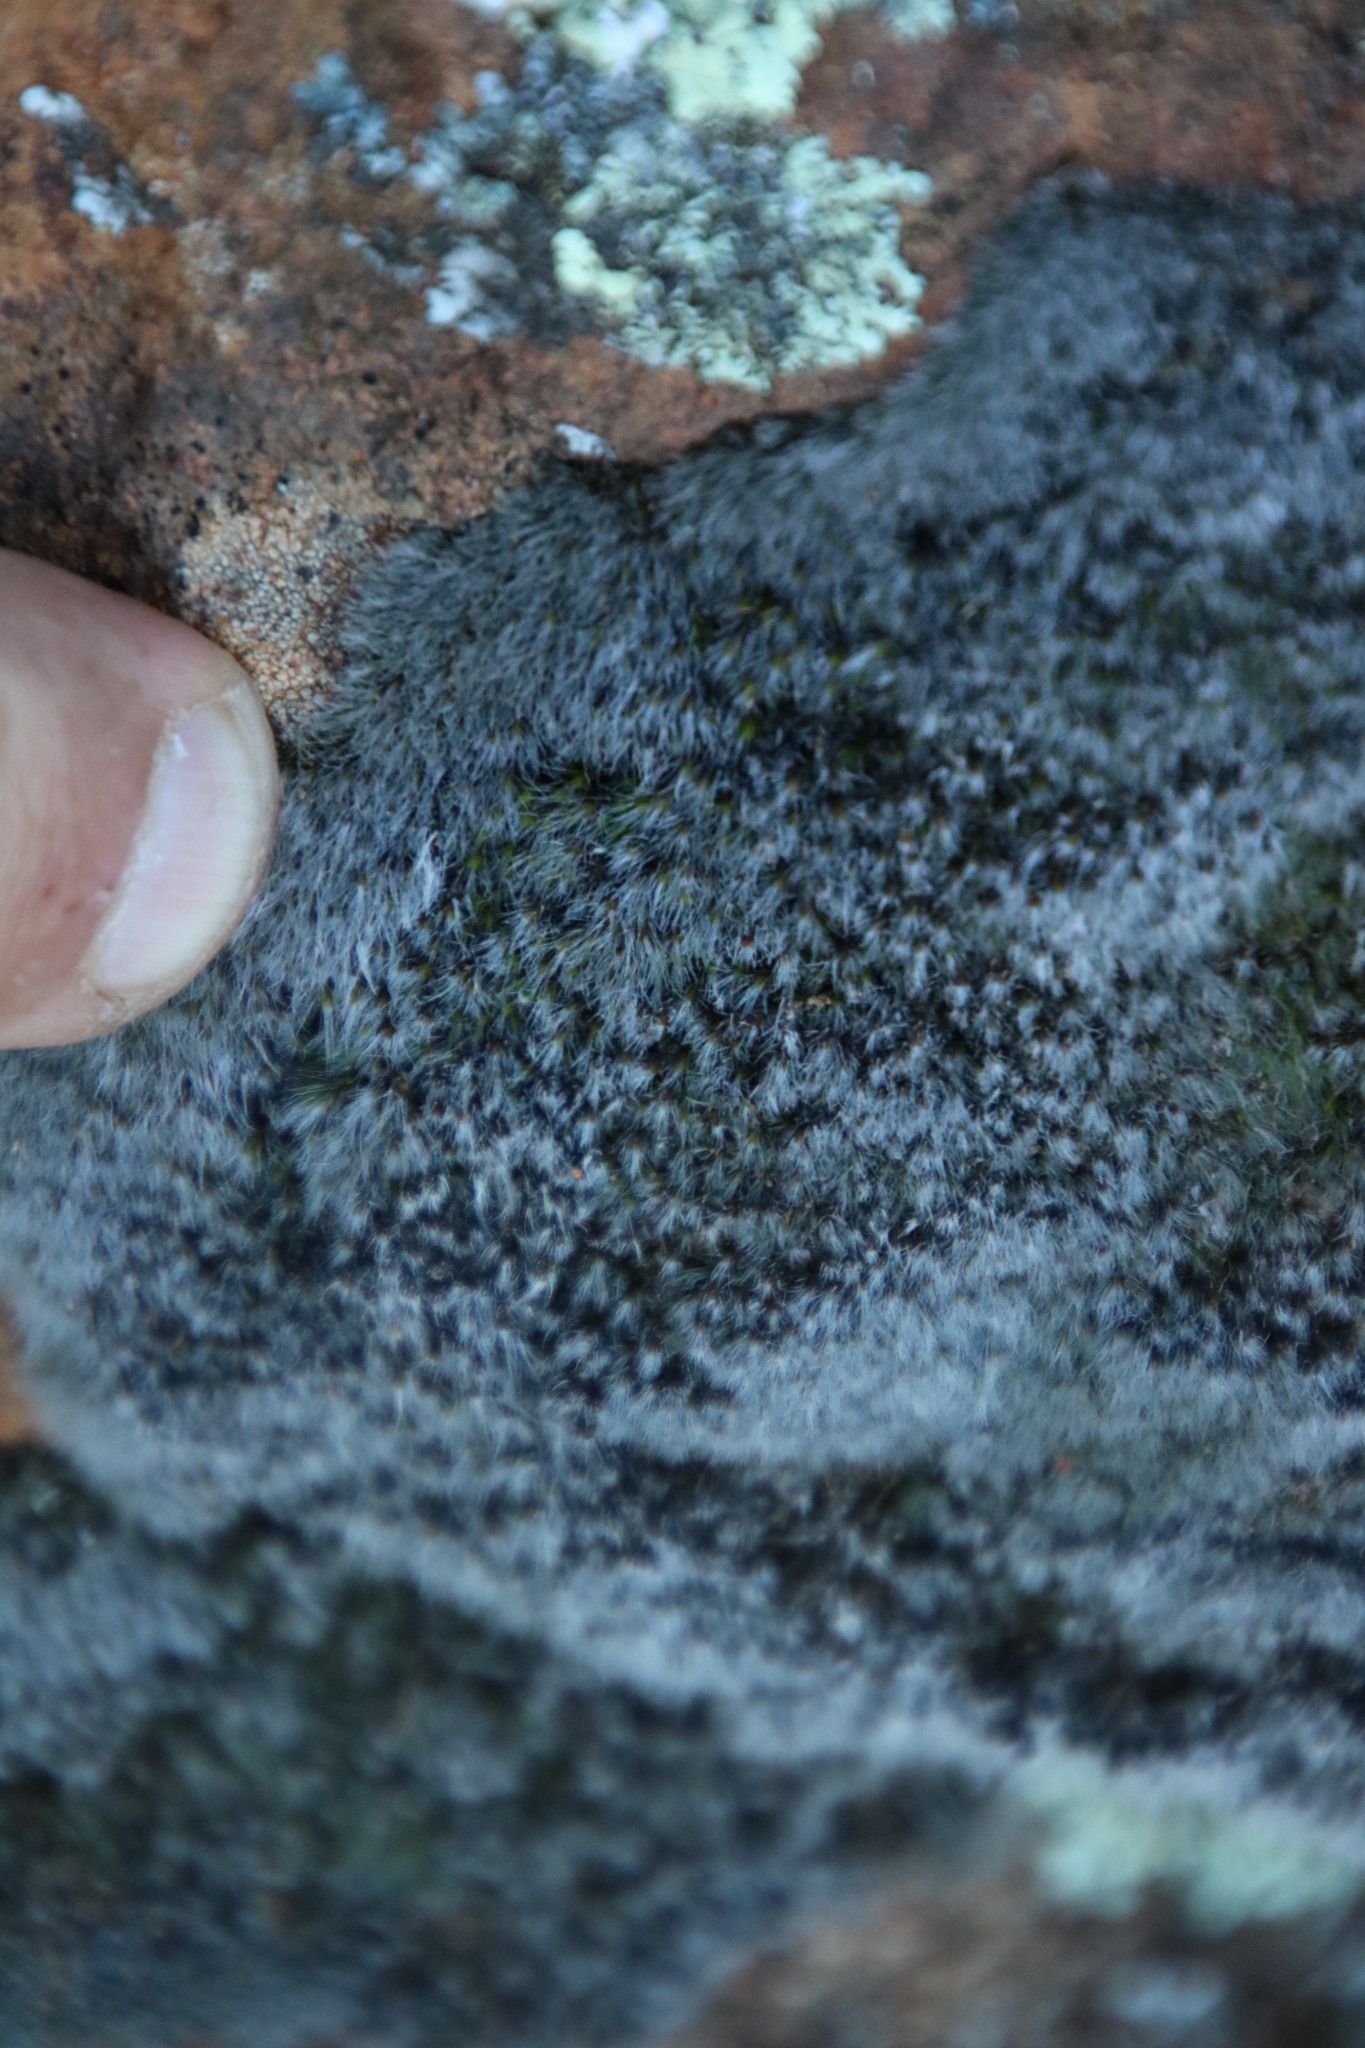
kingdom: Plantae
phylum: Bryophyta
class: Bryopsida
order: Grimmiales
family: Grimmiaceae
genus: Grimmia
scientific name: Grimmia pulvinata
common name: Grey-cushioned grimmia
